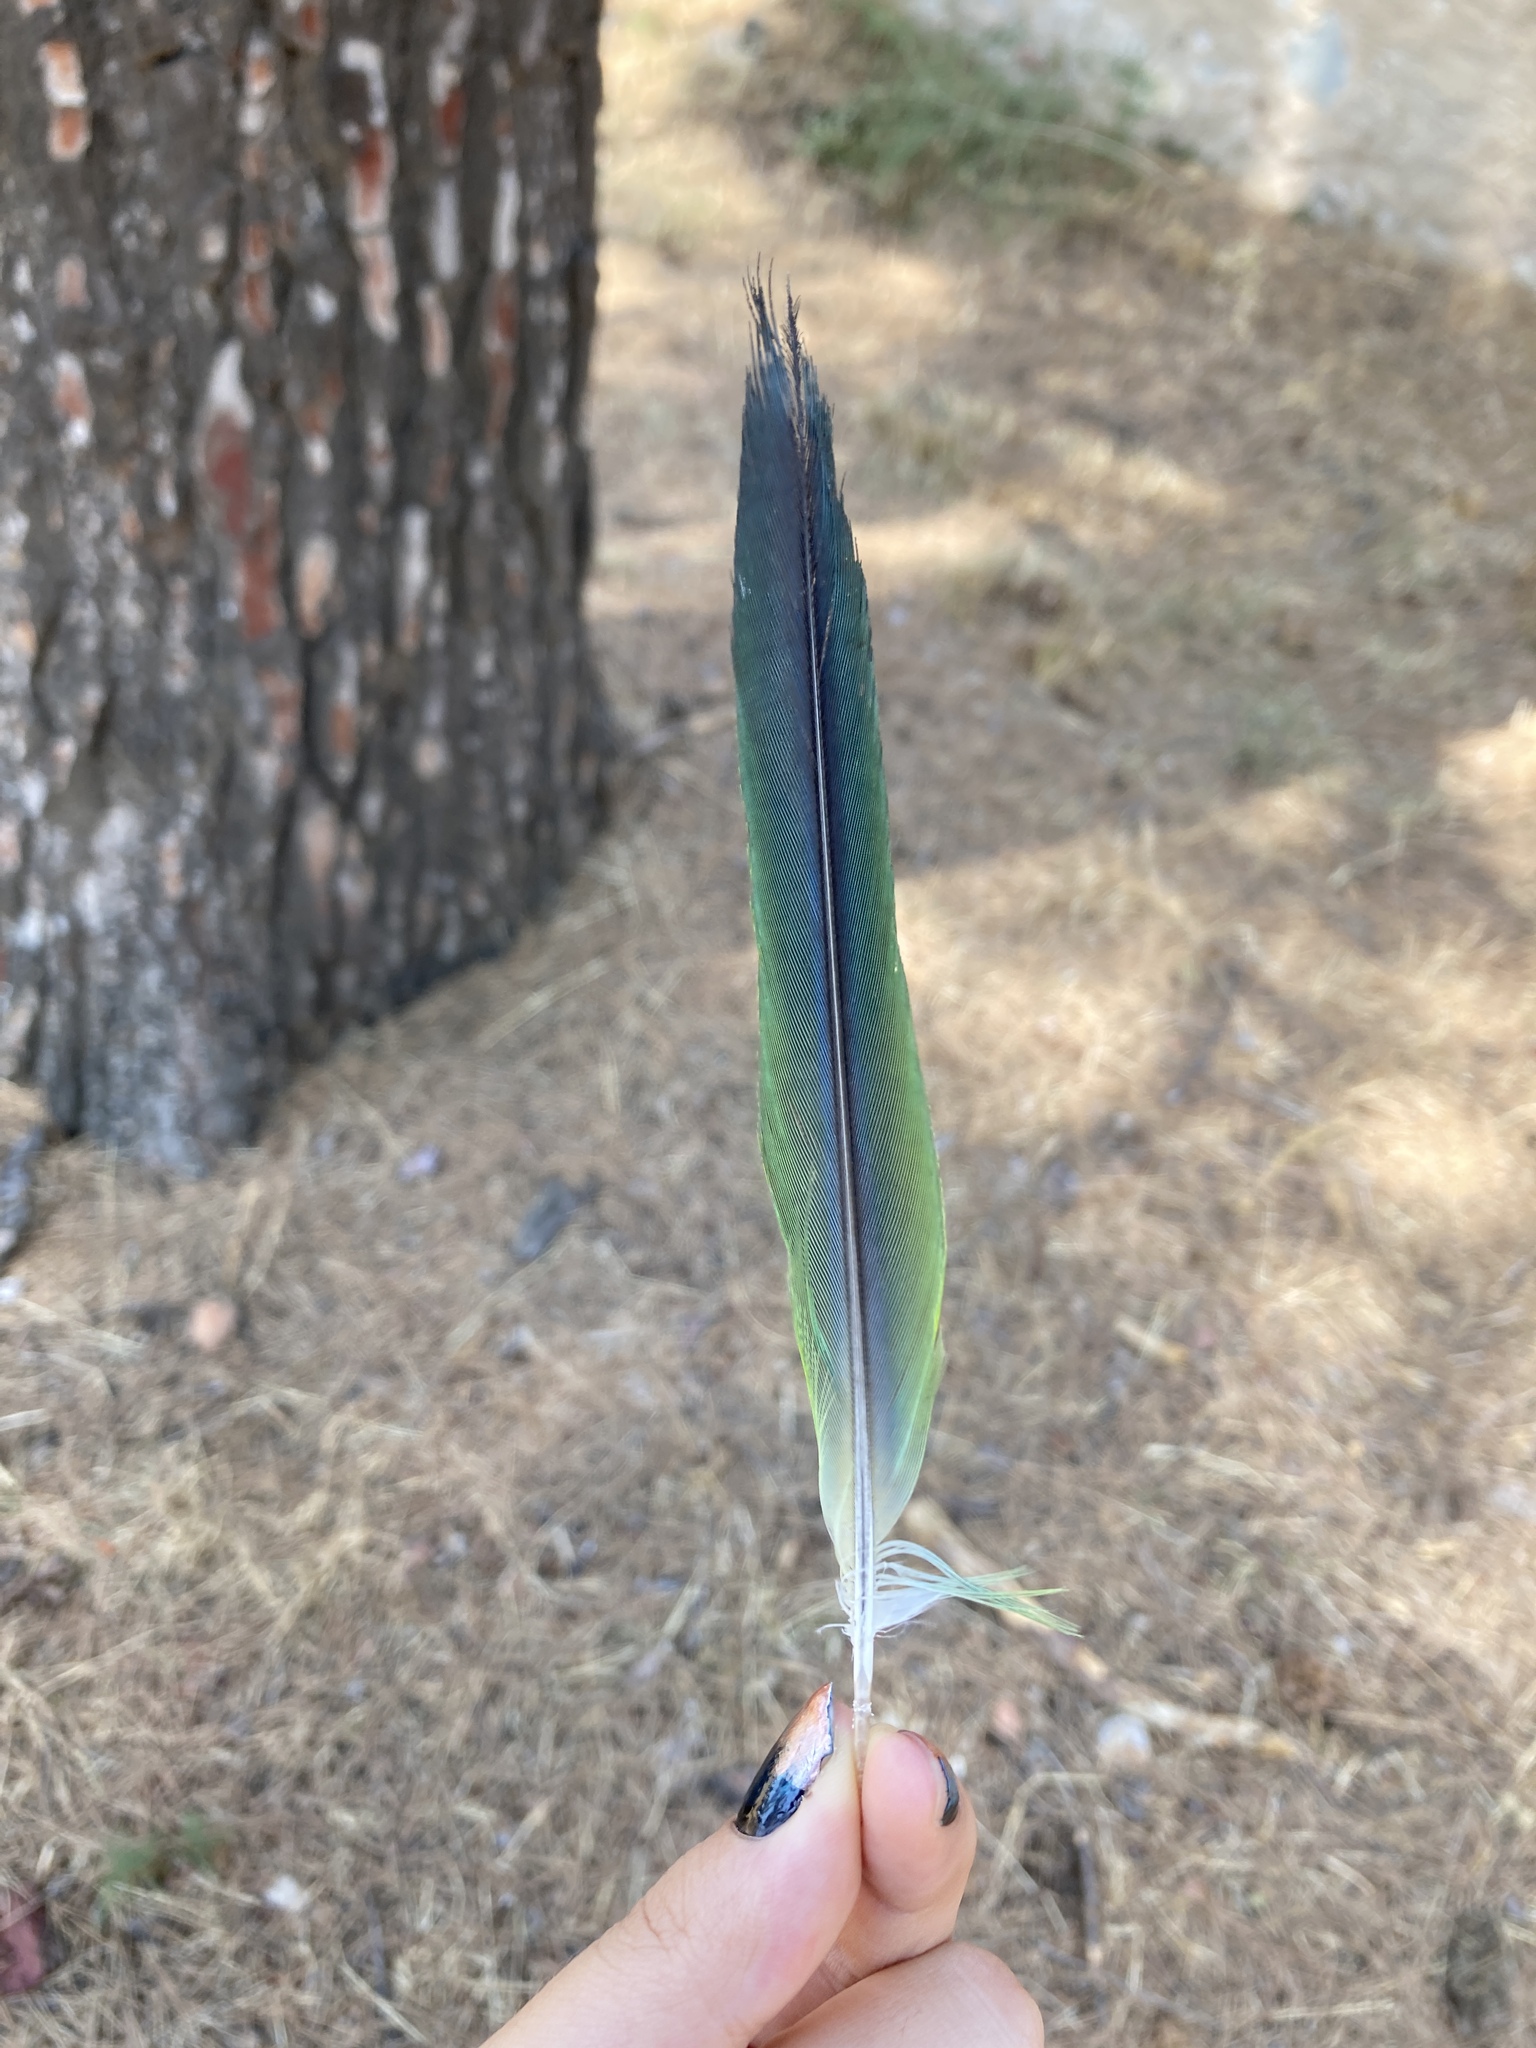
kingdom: Animalia
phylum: Chordata
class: Aves
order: Psittaciformes
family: Psittacidae
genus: Myiopsitta
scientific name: Myiopsitta monachus
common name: Monk parakeet
